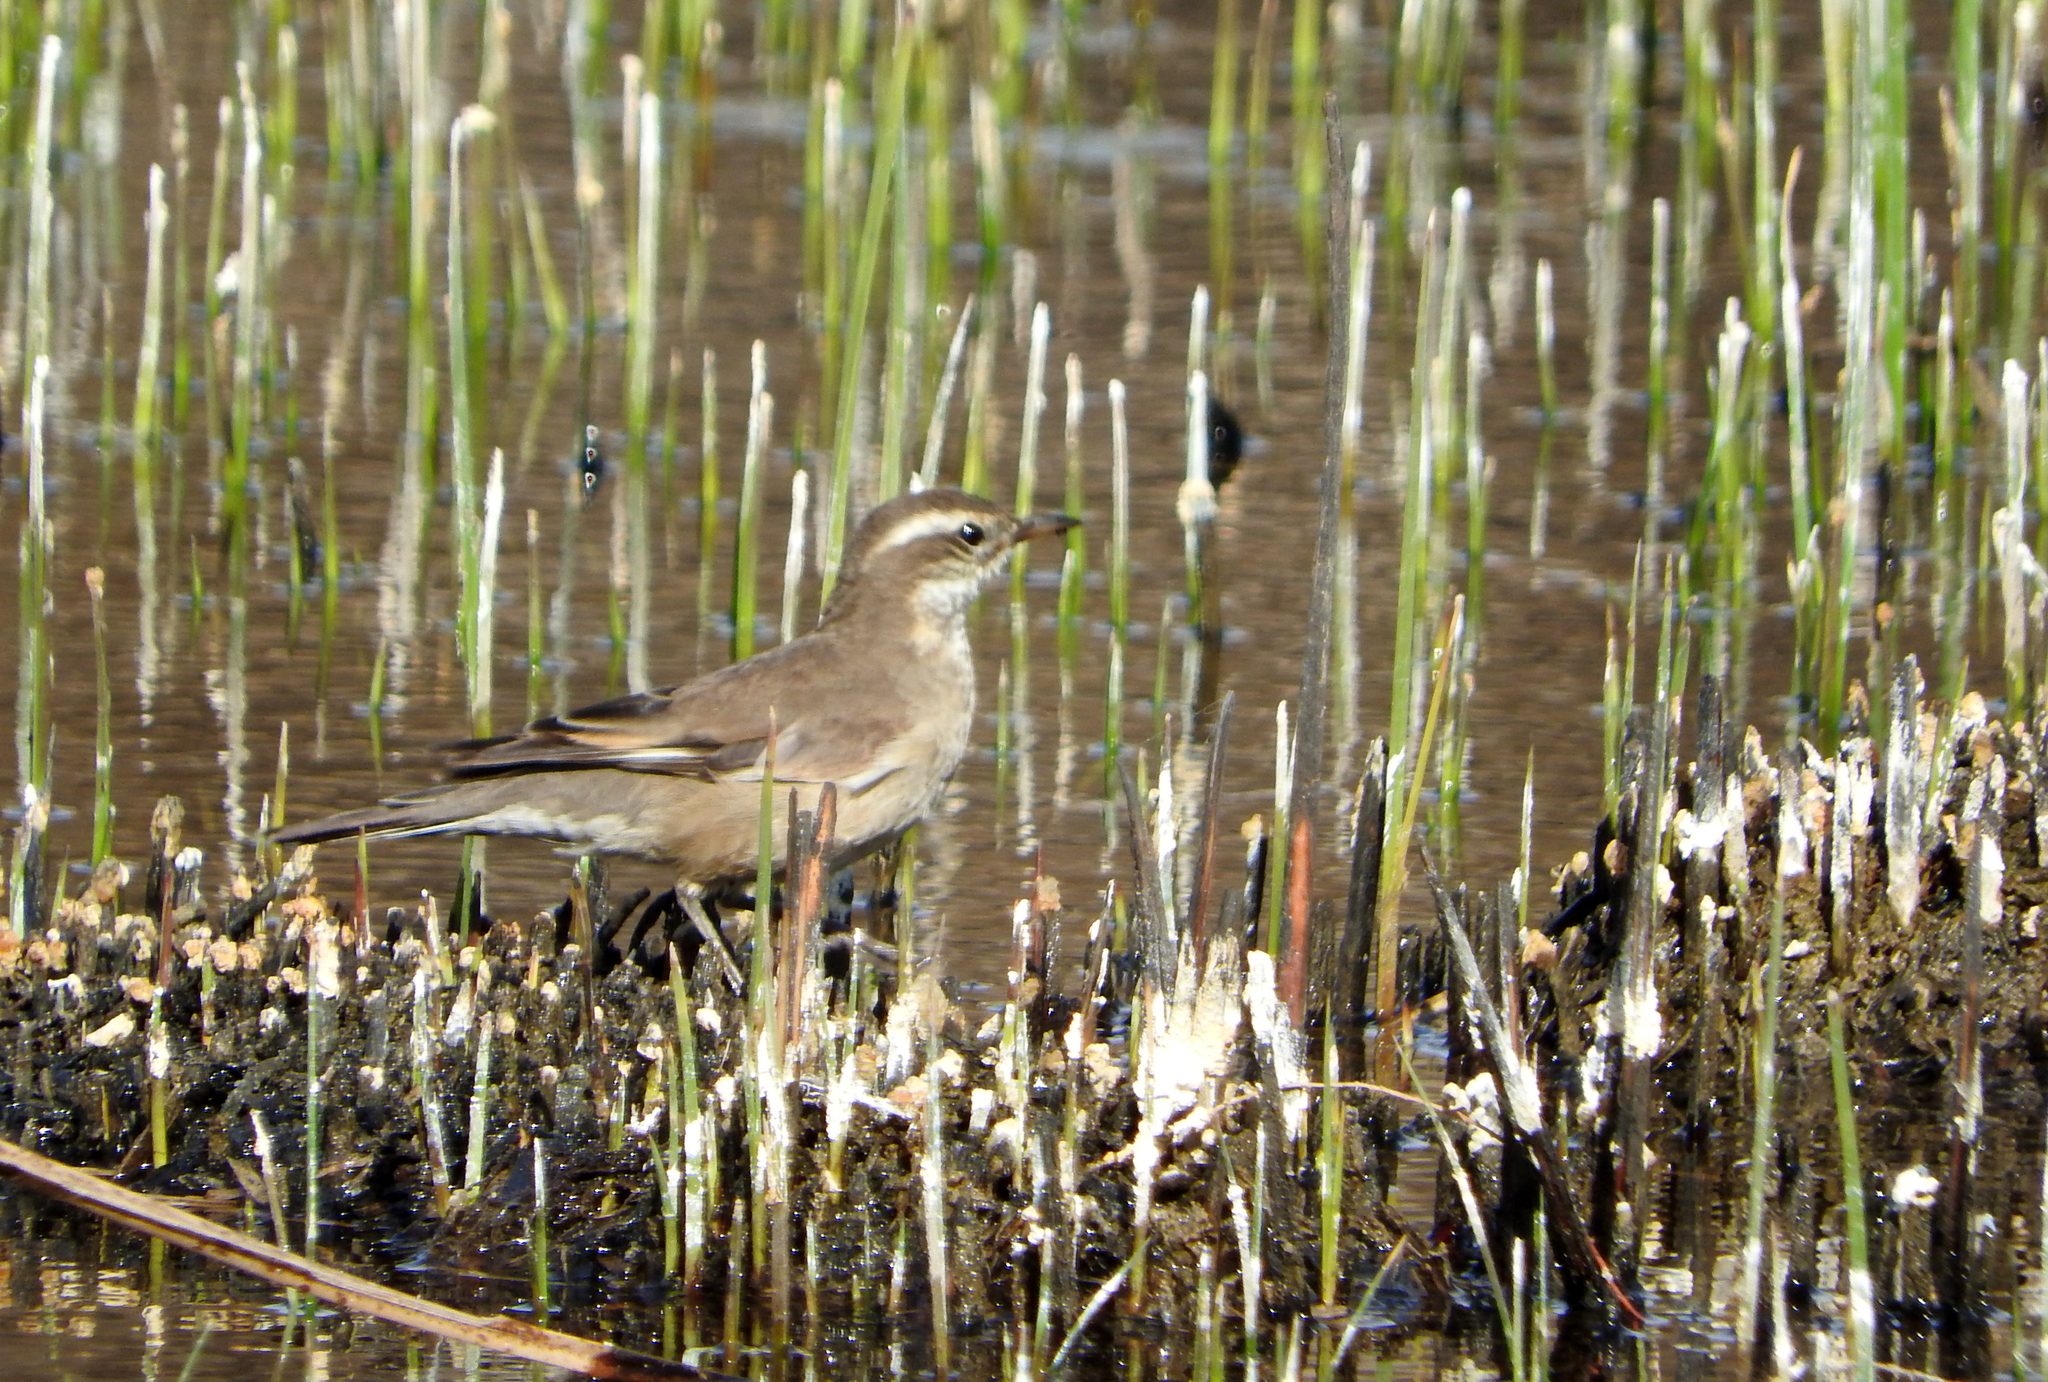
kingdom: Animalia
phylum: Chordata
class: Aves
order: Passeriformes
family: Furnariidae
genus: Cinclodes
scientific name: Cinclodes fuscus
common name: Buff-winged cinclodes
